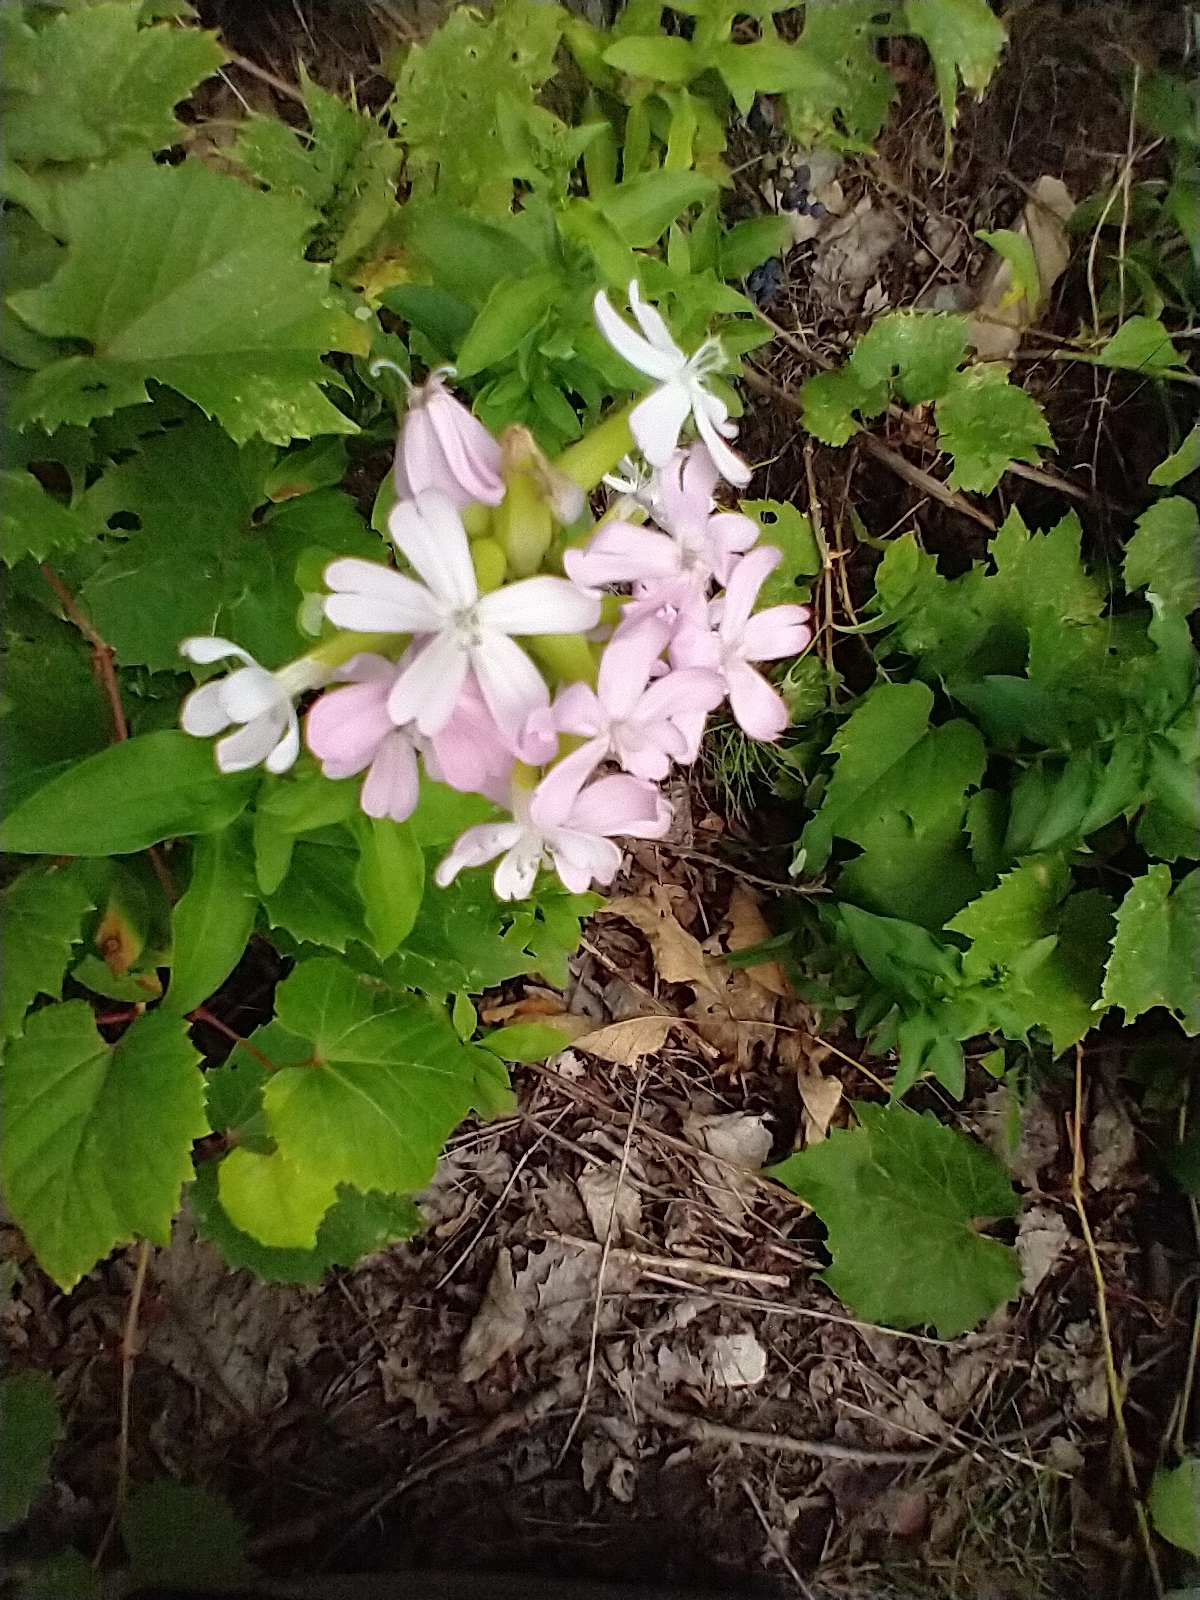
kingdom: Plantae
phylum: Tracheophyta
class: Magnoliopsida
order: Caryophyllales
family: Caryophyllaceae
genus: Saponaria
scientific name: Saponaria officinalis
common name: Soapwort
